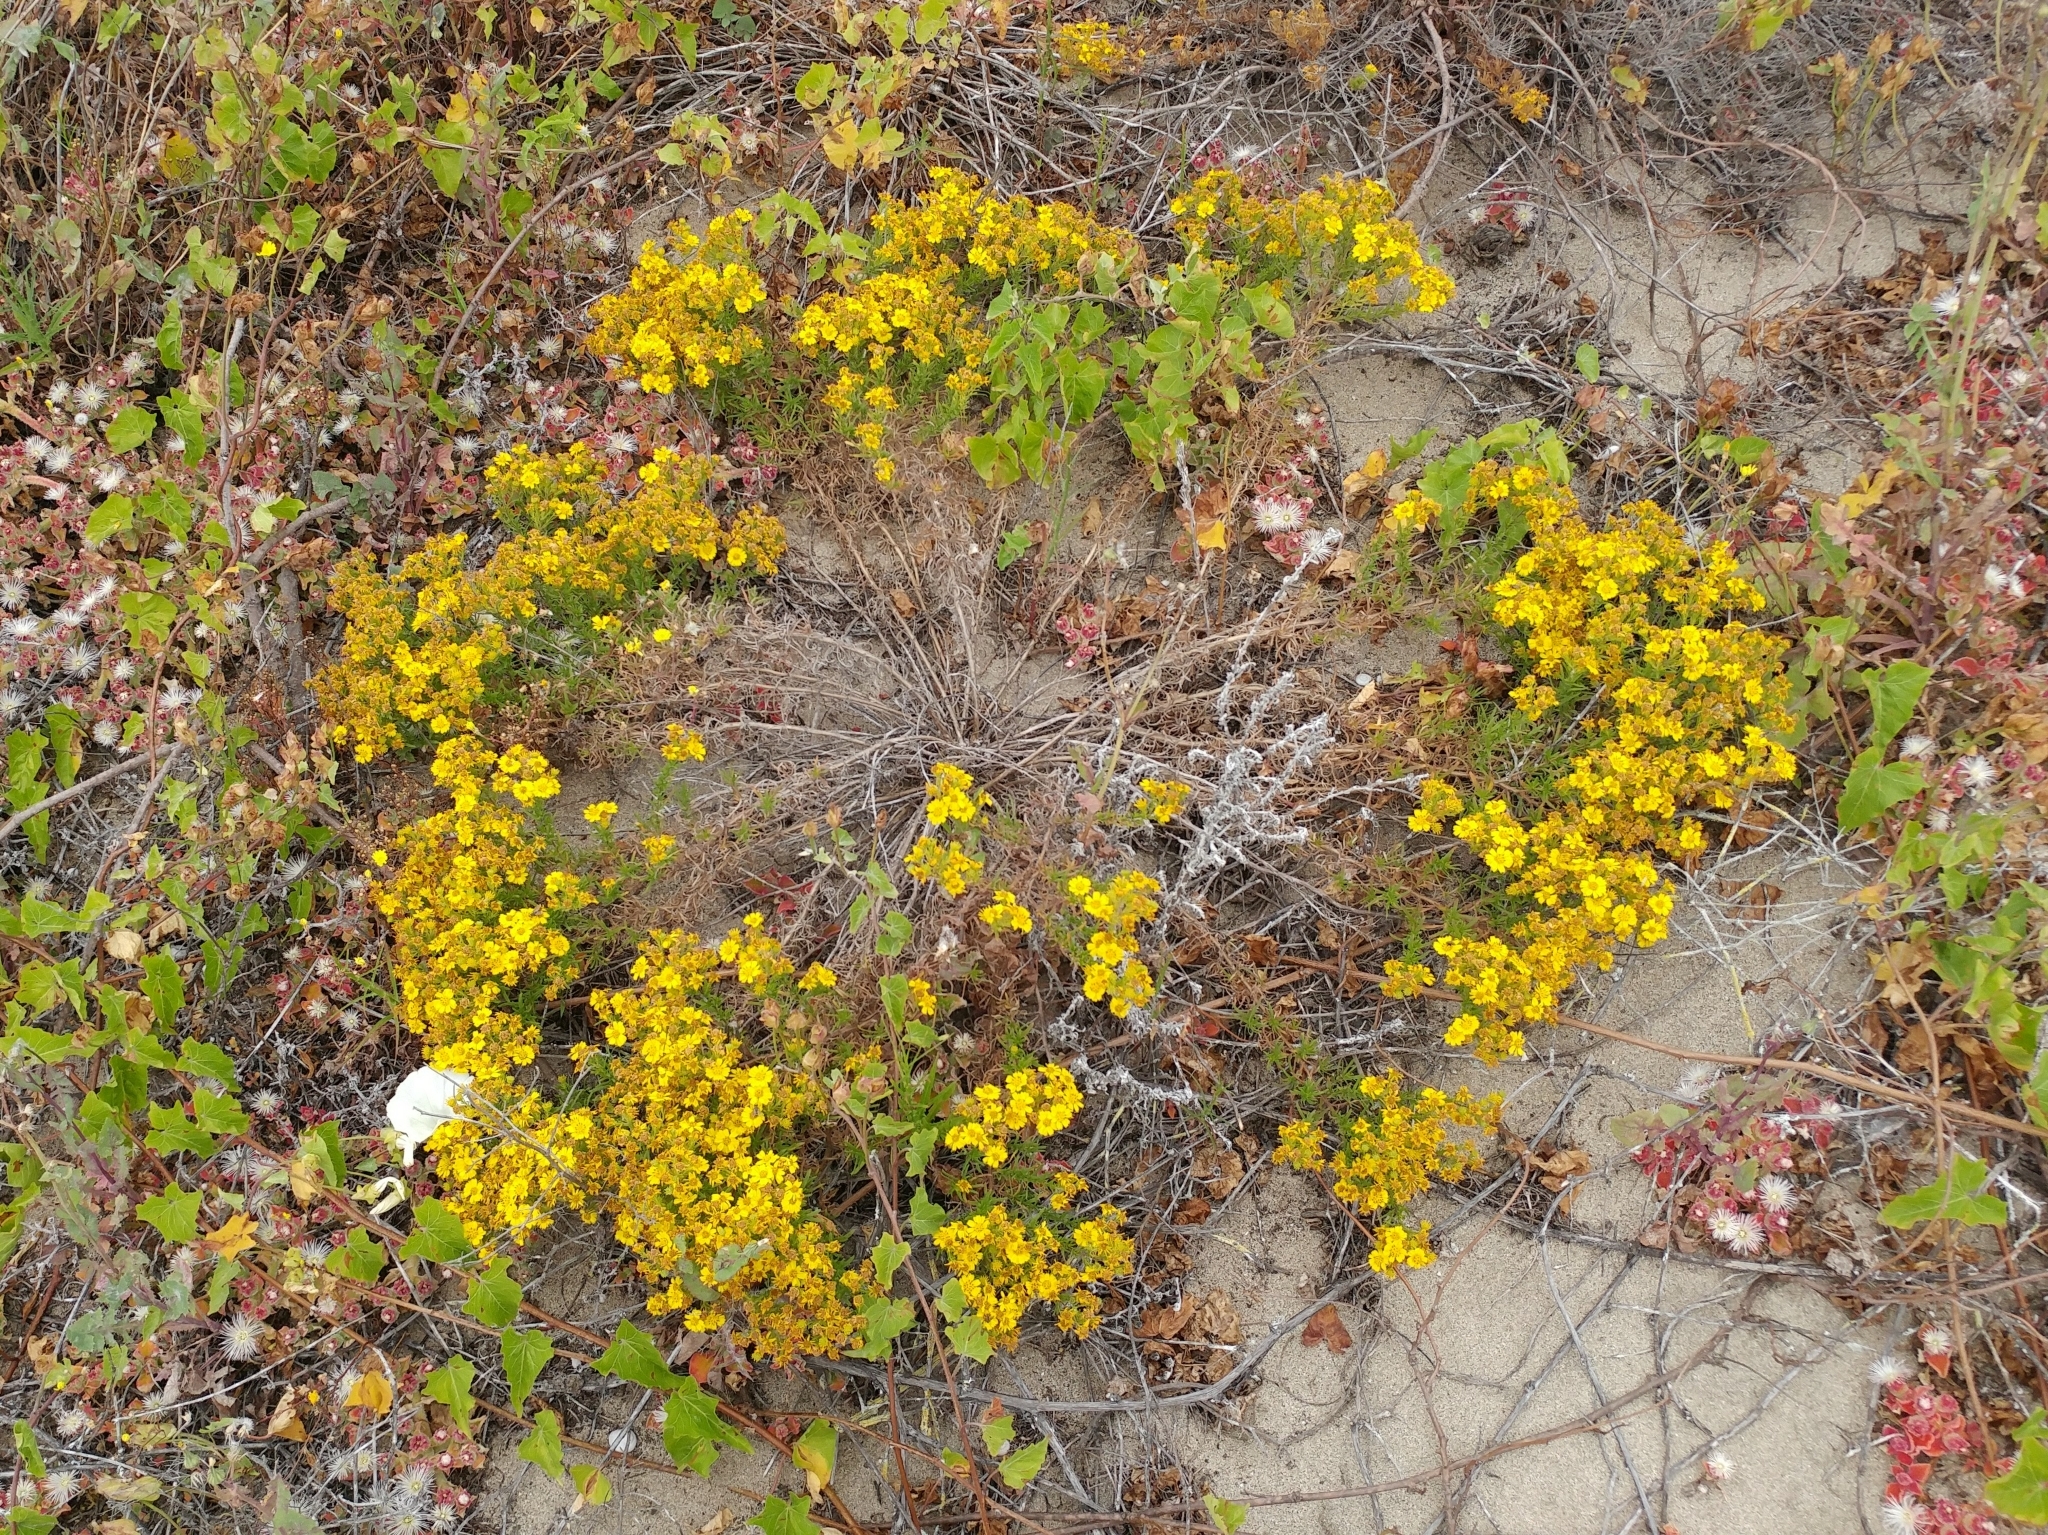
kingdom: Plantae
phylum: Tracheophyta
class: Magnoliopsida
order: Asterales
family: Asteraceae
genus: Deinandra
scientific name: Deinandra clementina
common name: Island tarplant
